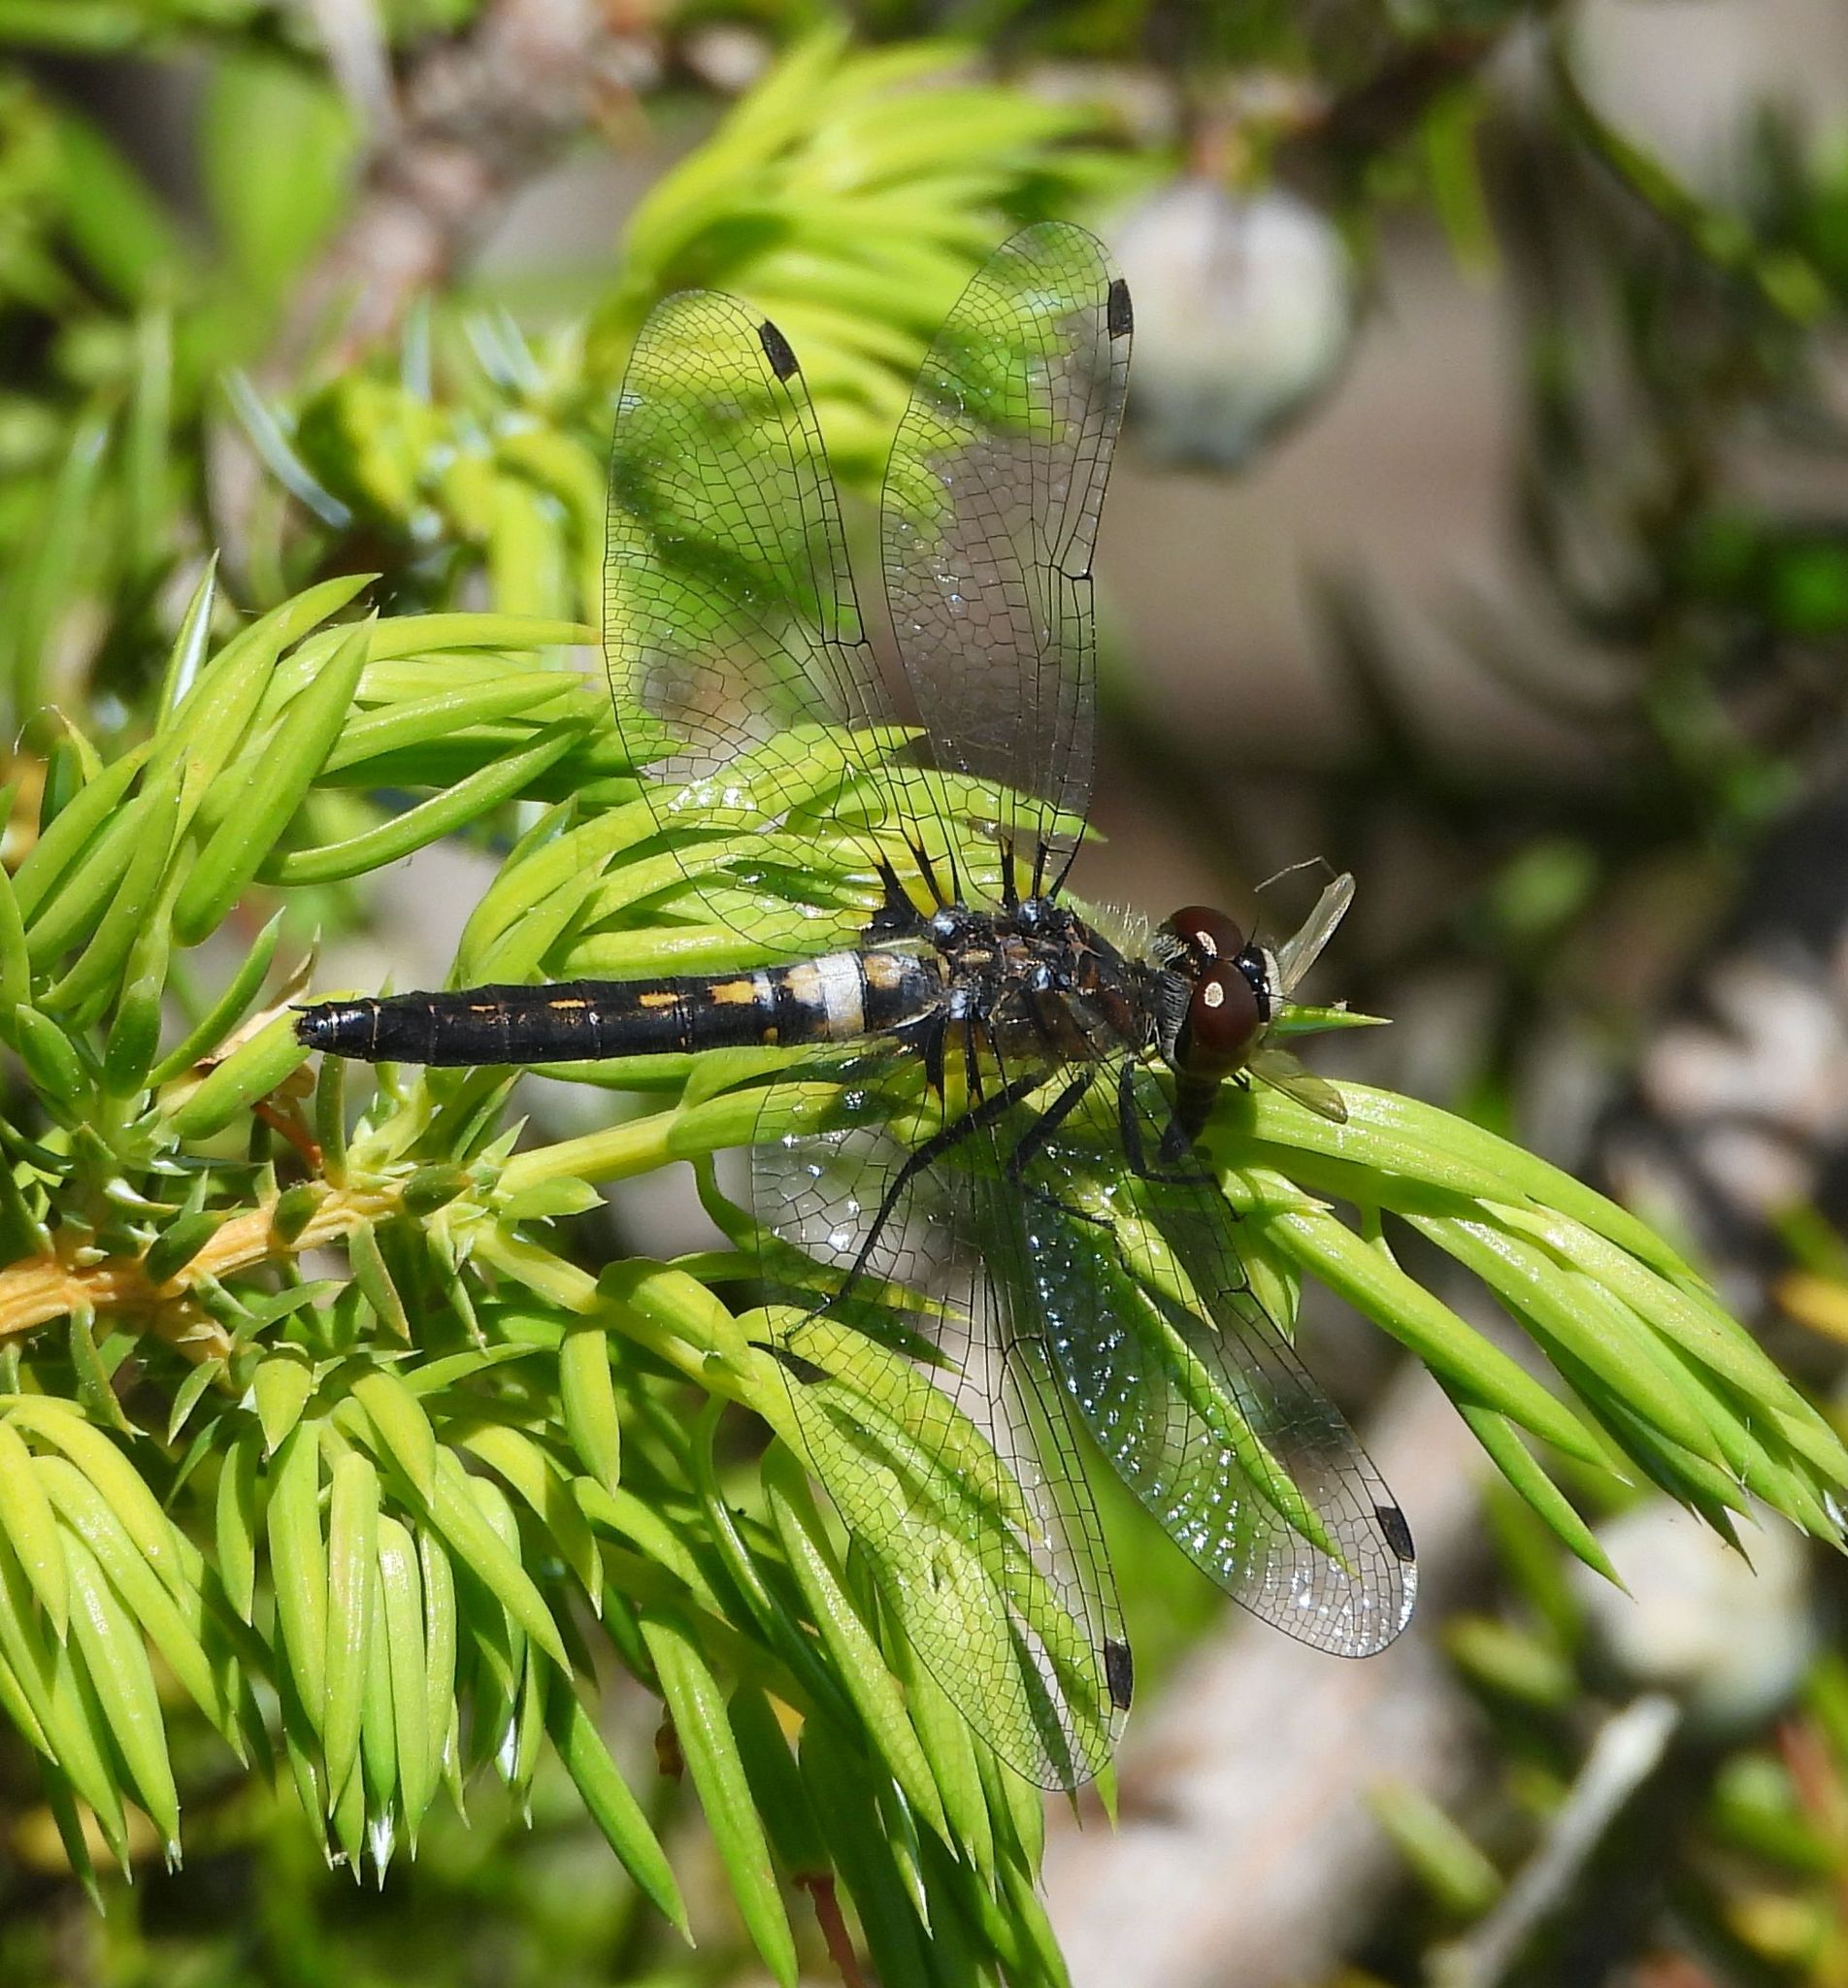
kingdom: Animalia
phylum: Arthropoda
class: Insecta
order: Odonata
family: Libellulidae
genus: Leucorrhinia
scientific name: Leucorrhinia frigida
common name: Frosted whiteface
